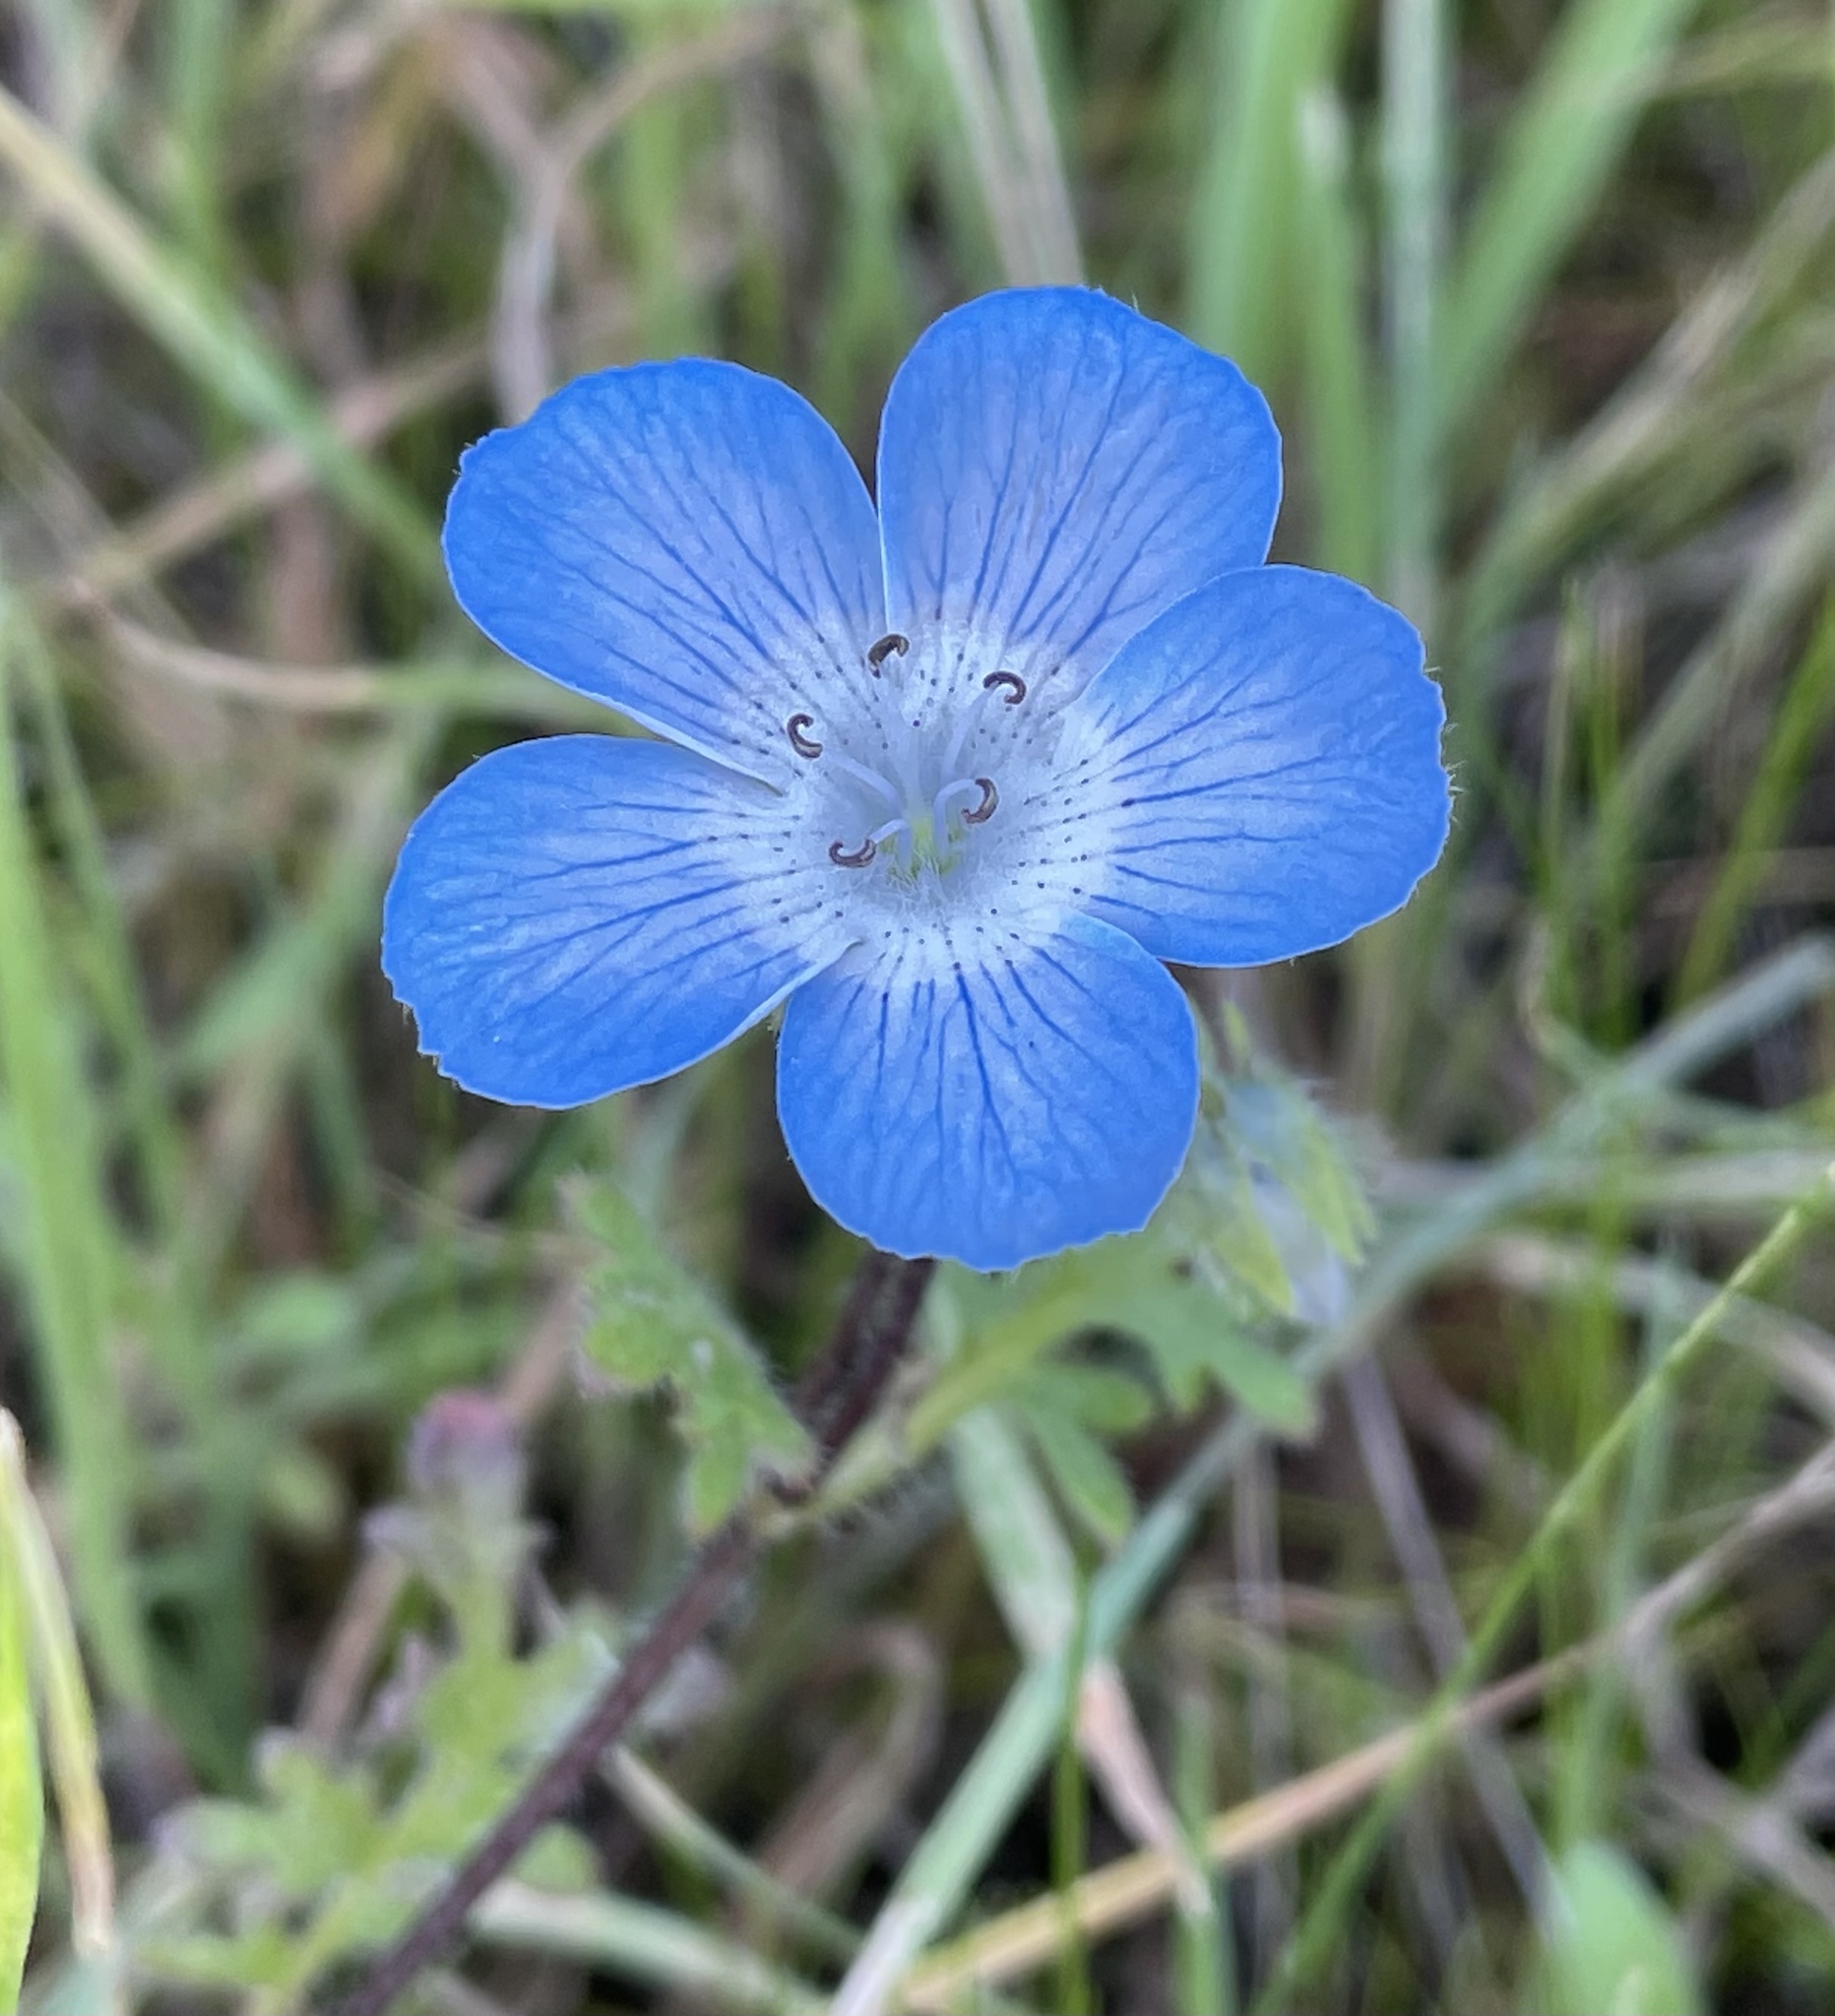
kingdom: Plantae
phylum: Tracheophyta
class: Magnoliopsida
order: Boraginales
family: Hydrophyllaceae
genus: Nemophila
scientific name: Nemophila menziesii
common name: Baby's-blue-eyes
